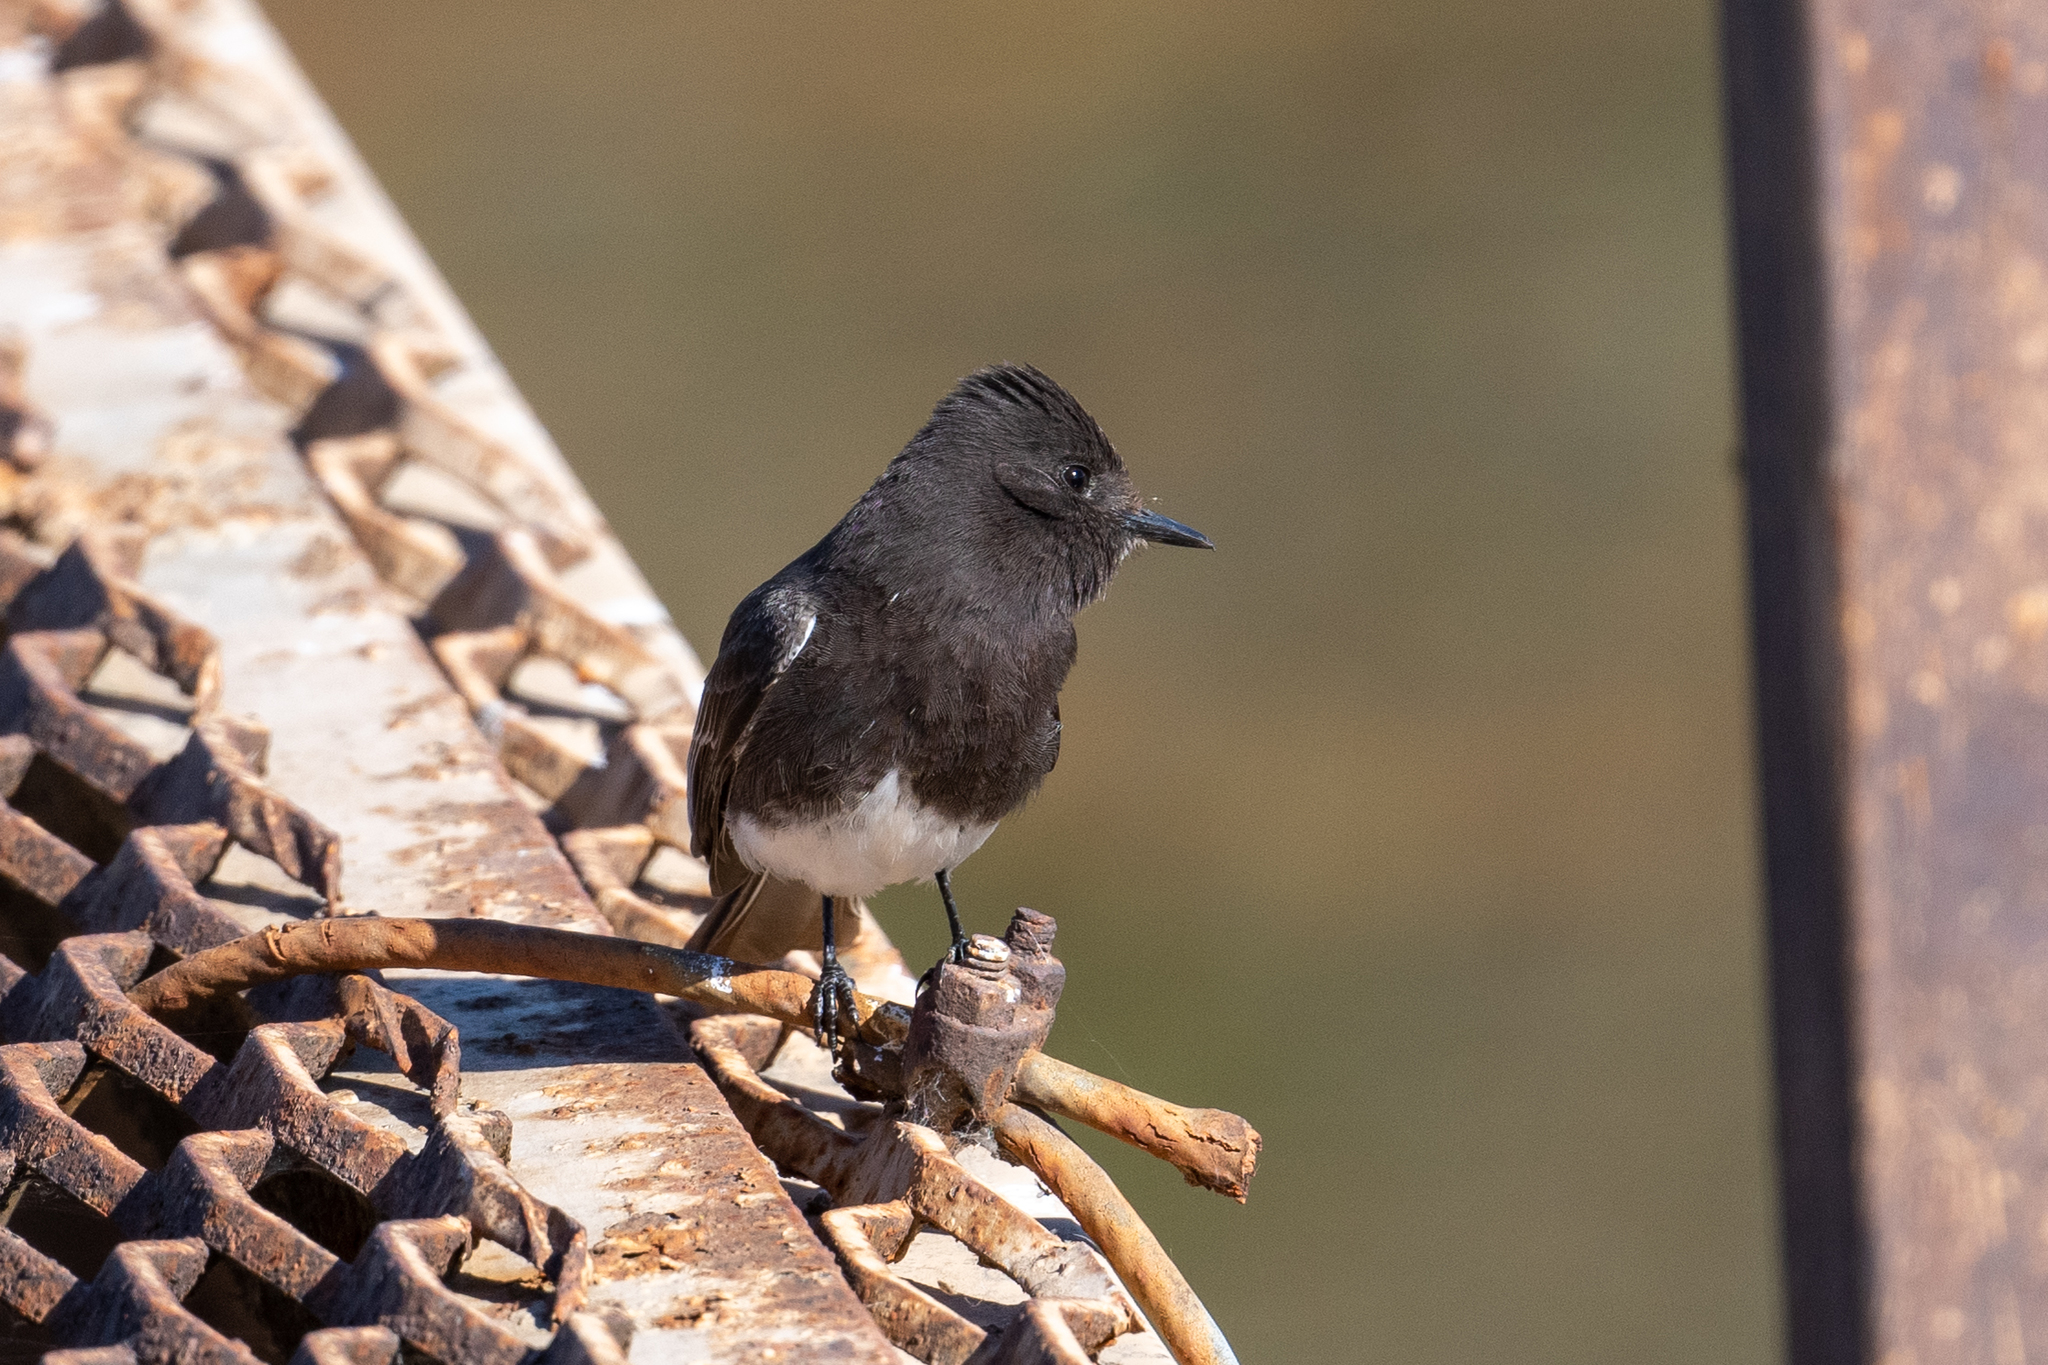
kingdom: Animalia
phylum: Chordata
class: Aves
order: Passeriformes
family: Tyrannidae
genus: Sayornis
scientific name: Sayornis nigricans
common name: Black phoebe
